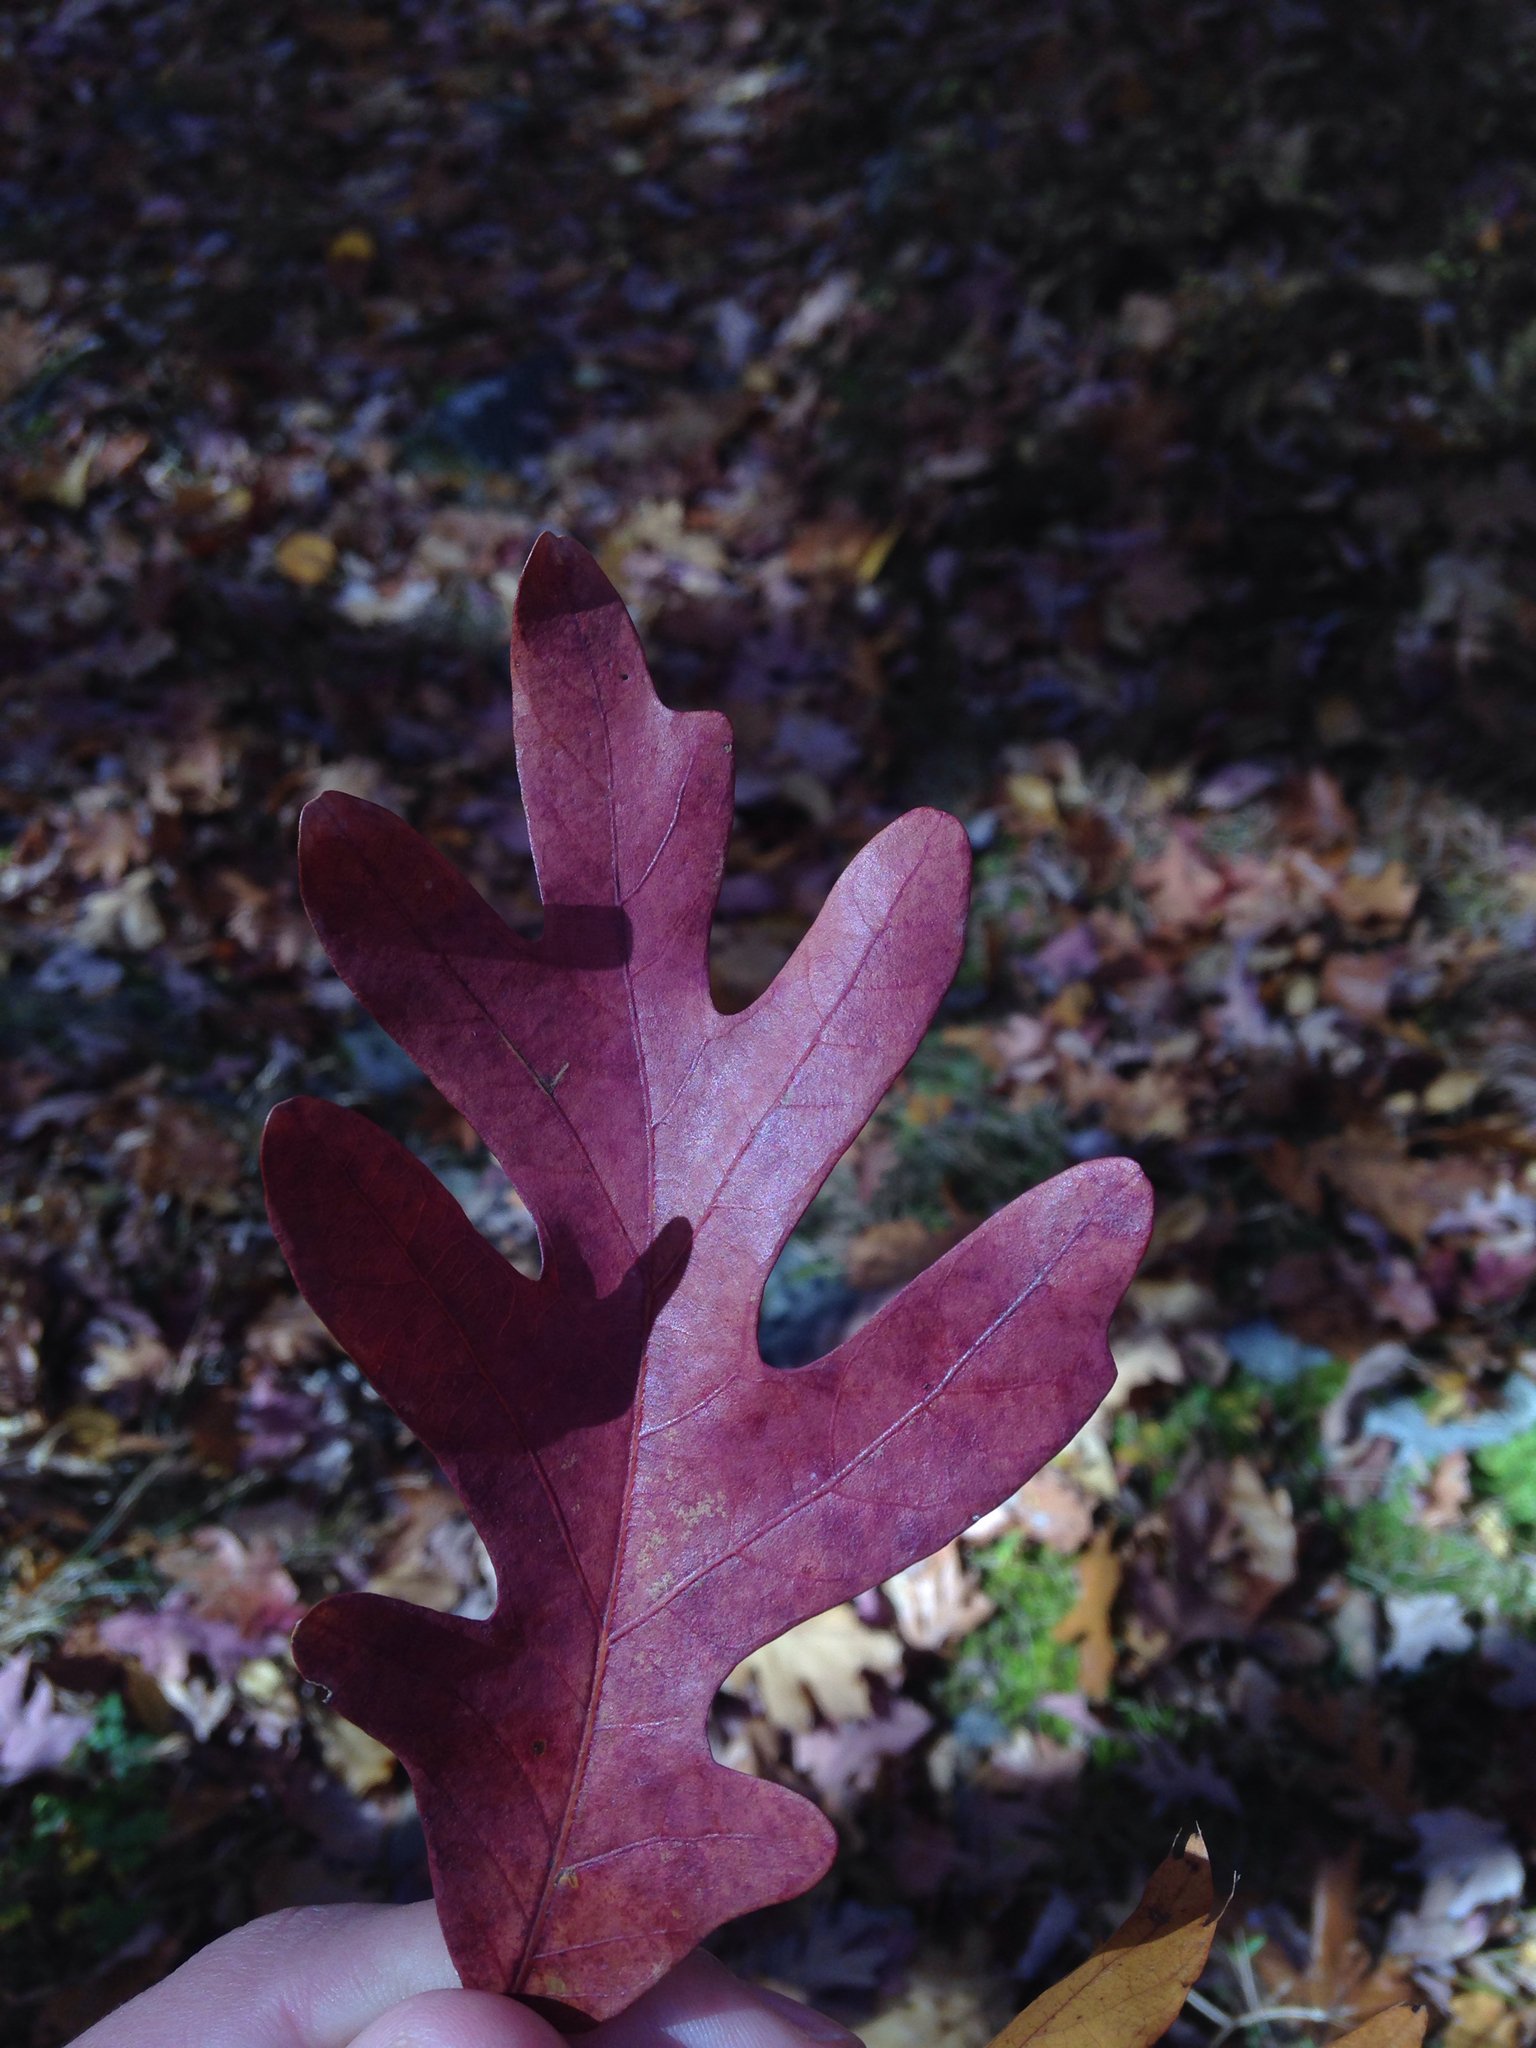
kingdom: Plantae
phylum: Tracheophyta
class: Magnoliopsida
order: Fagales
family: Fagaceae
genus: Quercus
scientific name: Quercus alba
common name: White oak
